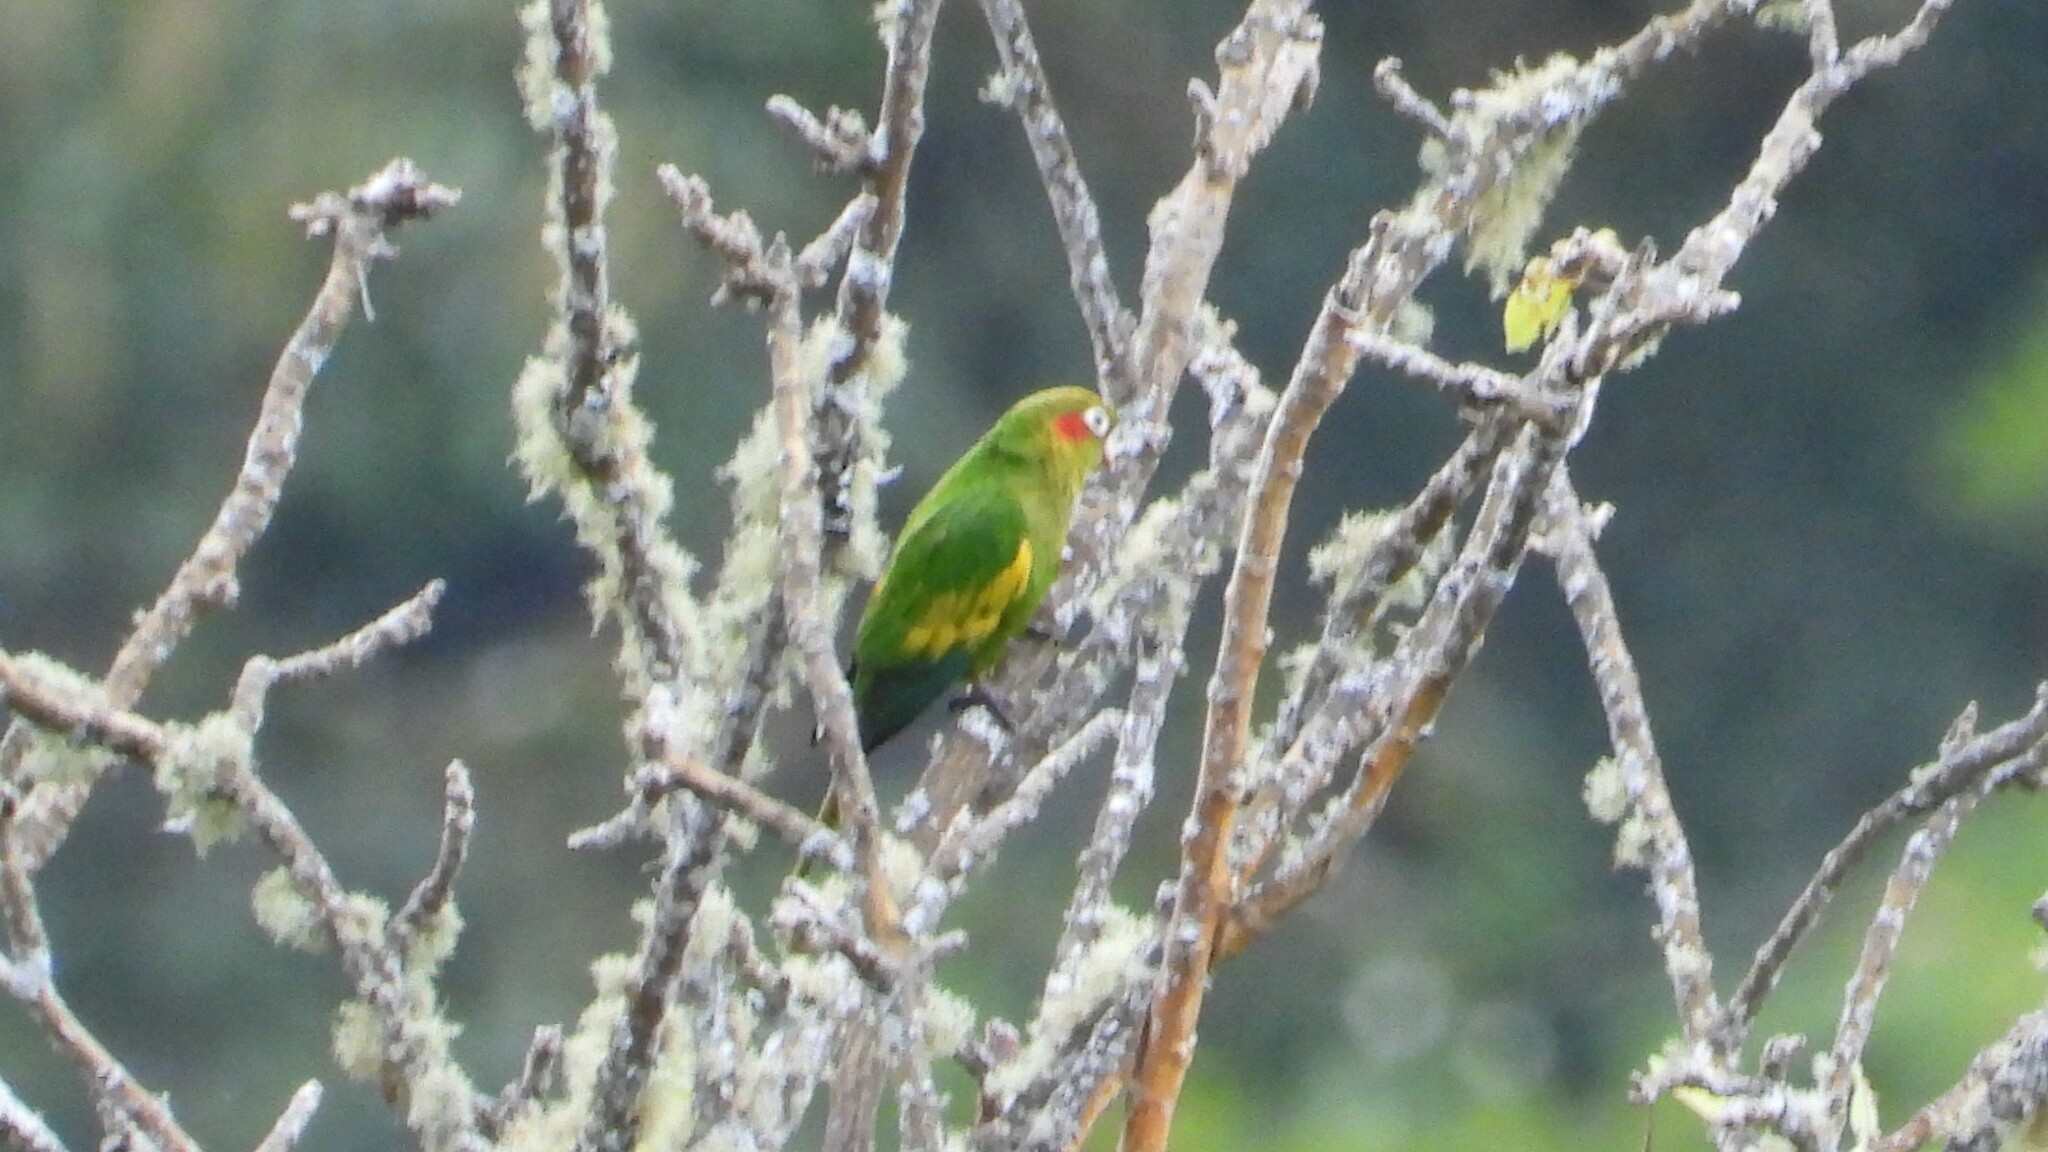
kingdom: Animalia
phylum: Chordata
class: Aves
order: Psittaciformes
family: Psittacidae
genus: Pyrrhura
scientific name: Pyrrhura hoffmanni
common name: Sulphur-winged parakeet
